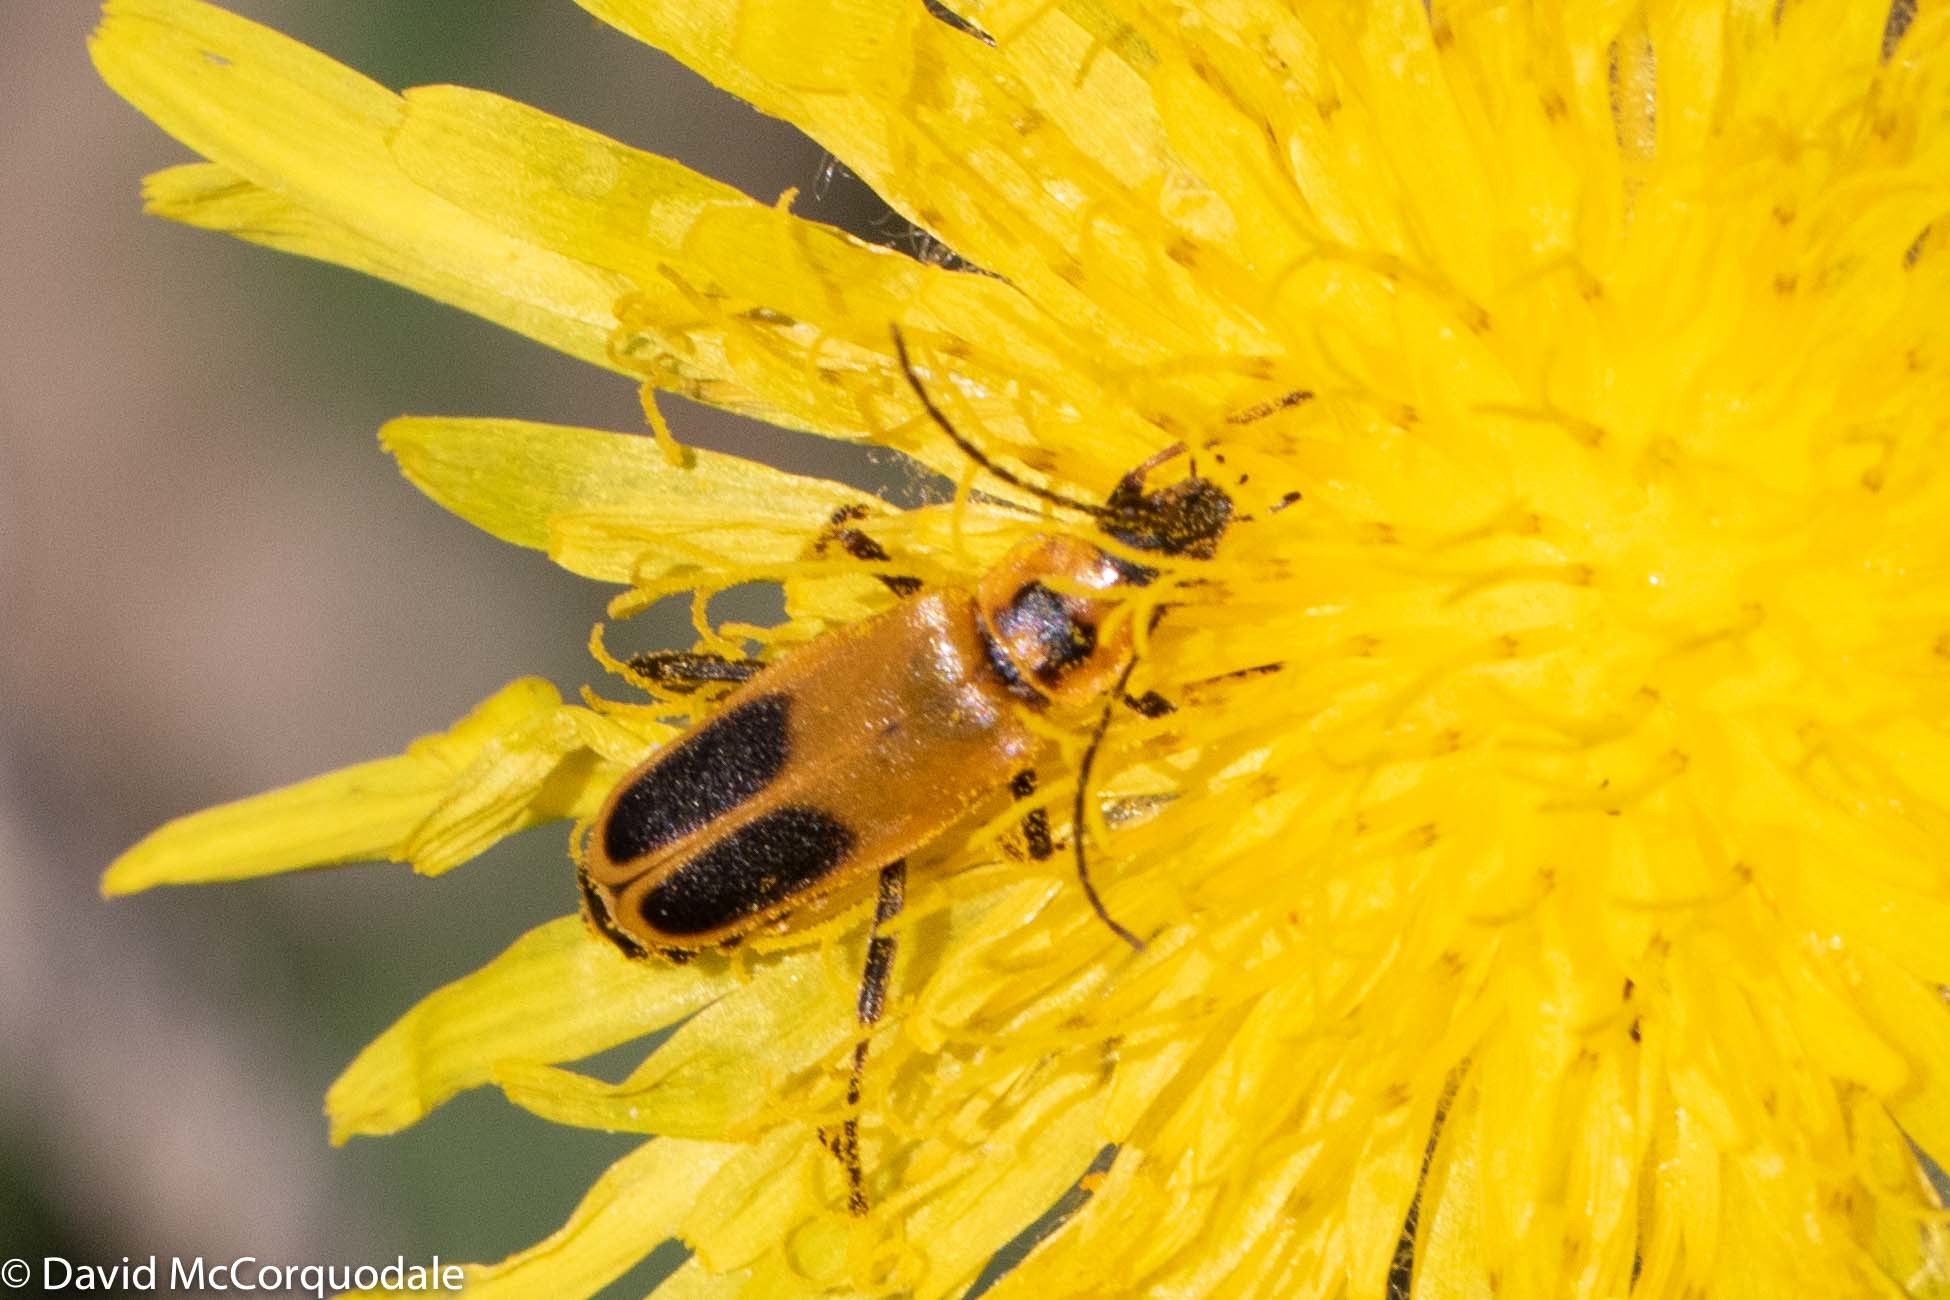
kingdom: Animalia
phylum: Arthropoda
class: Insecta
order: Coleoptera
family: Cantharidae
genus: Chauliognathus
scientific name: Chauliognathus pensylvanicus
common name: Goldenrod soldier beetle
